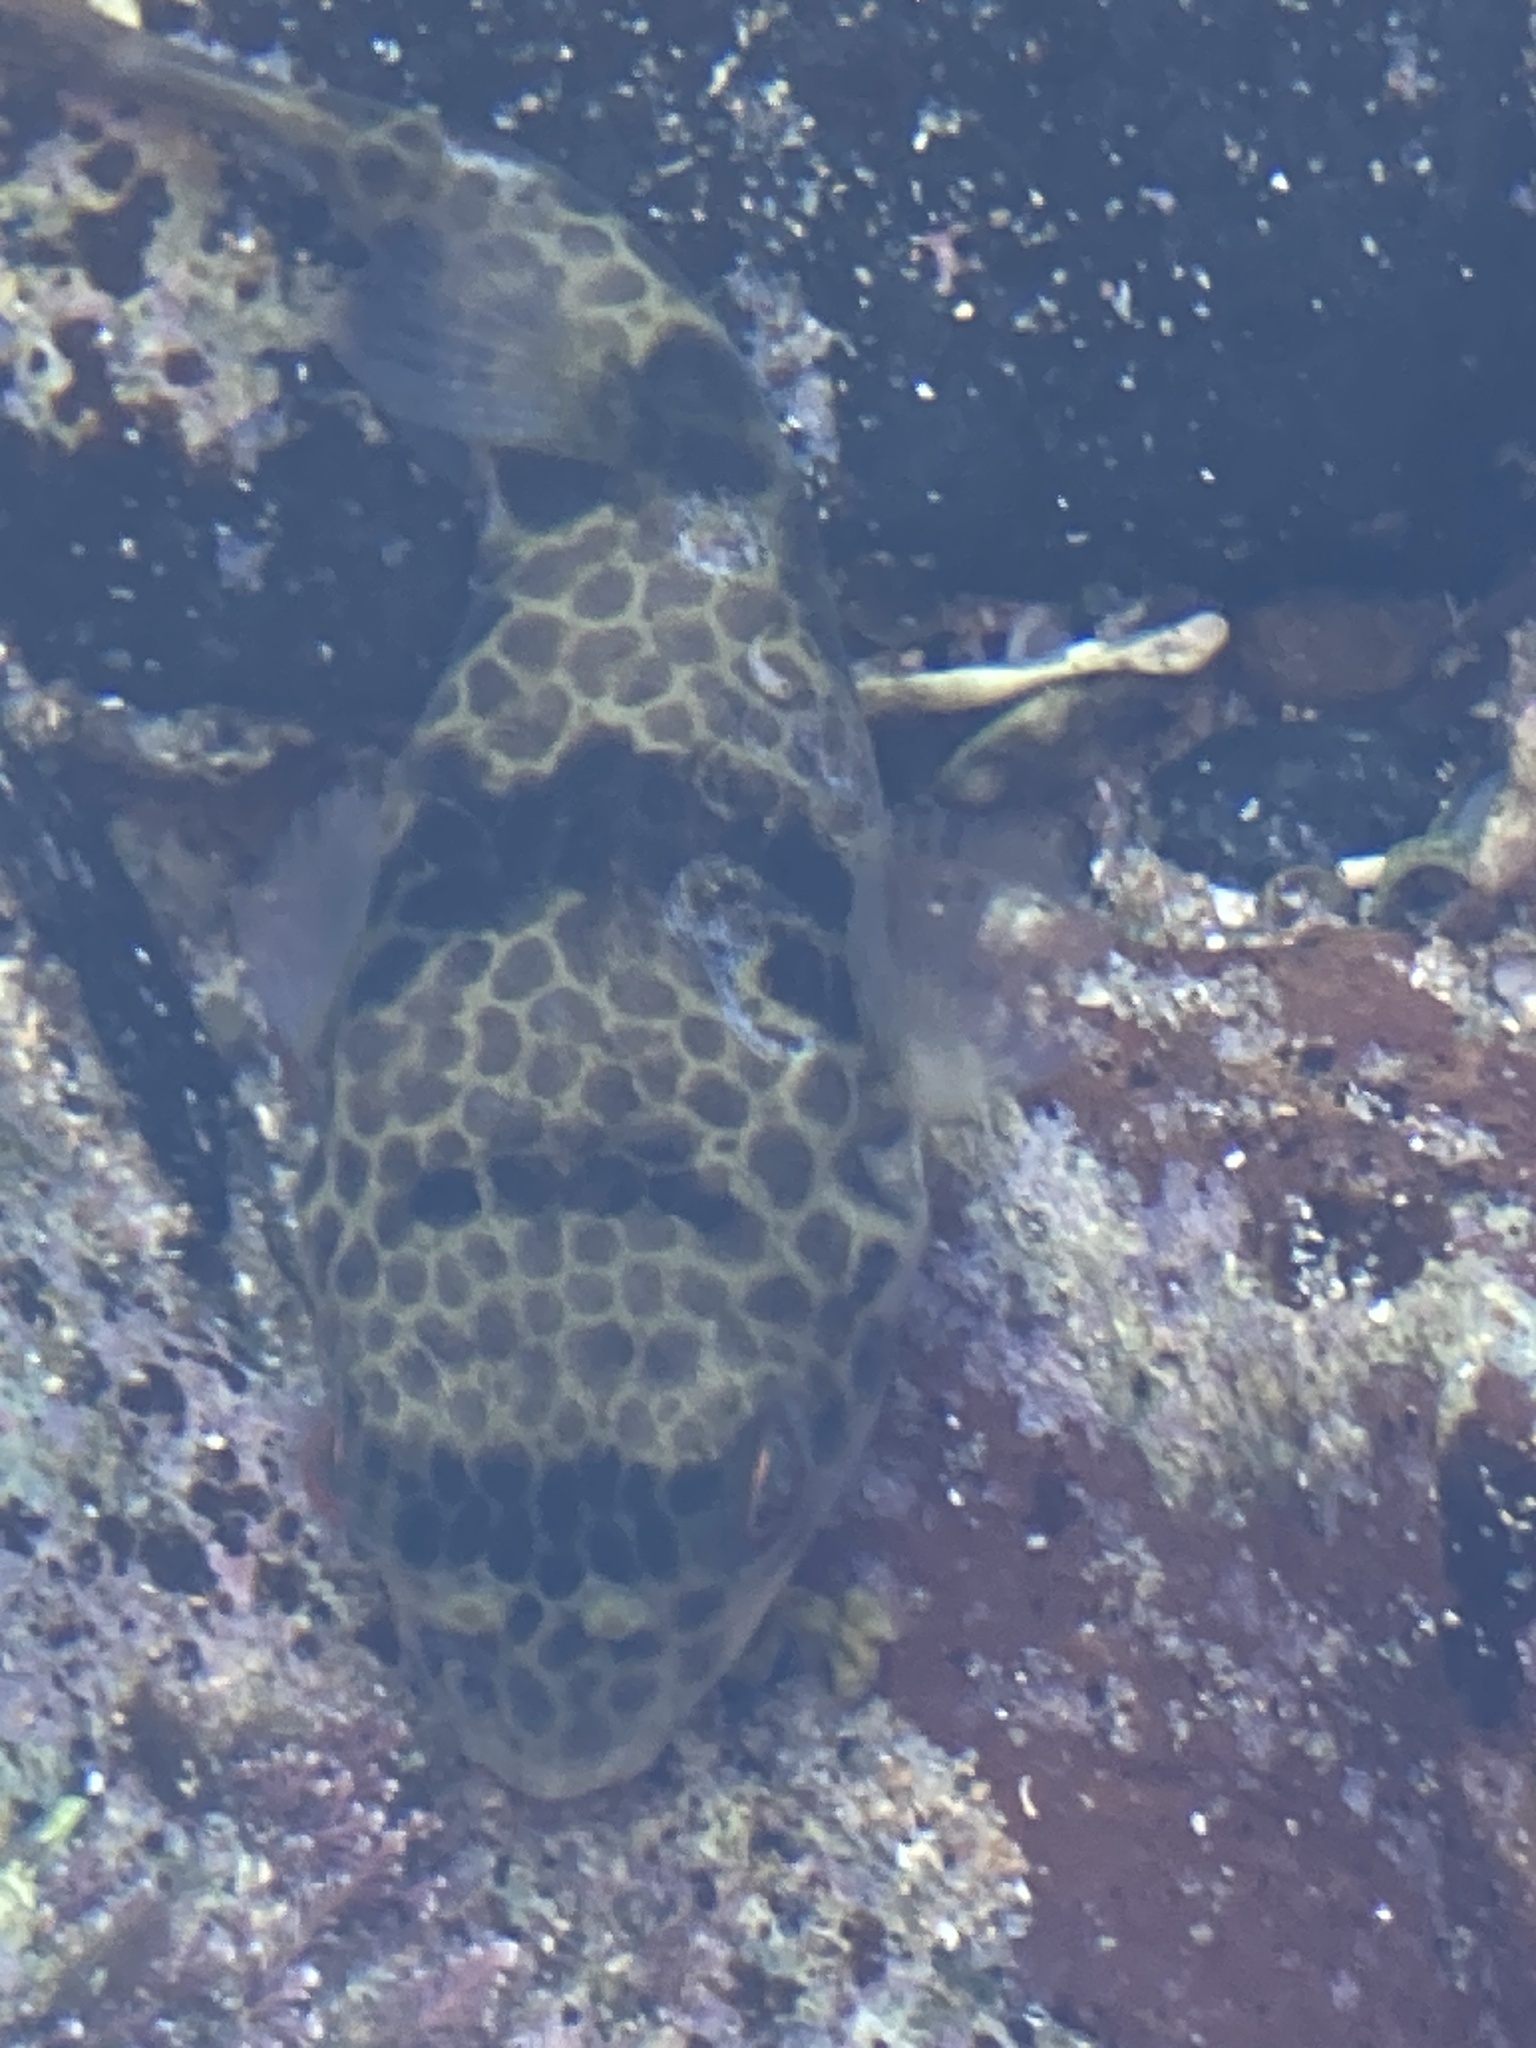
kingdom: Animalia
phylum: Chordata
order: Tetraodontiformes
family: Tetraodontidae
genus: Tetractenos
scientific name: Tetractenos glaber
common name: Smooth toadfish
